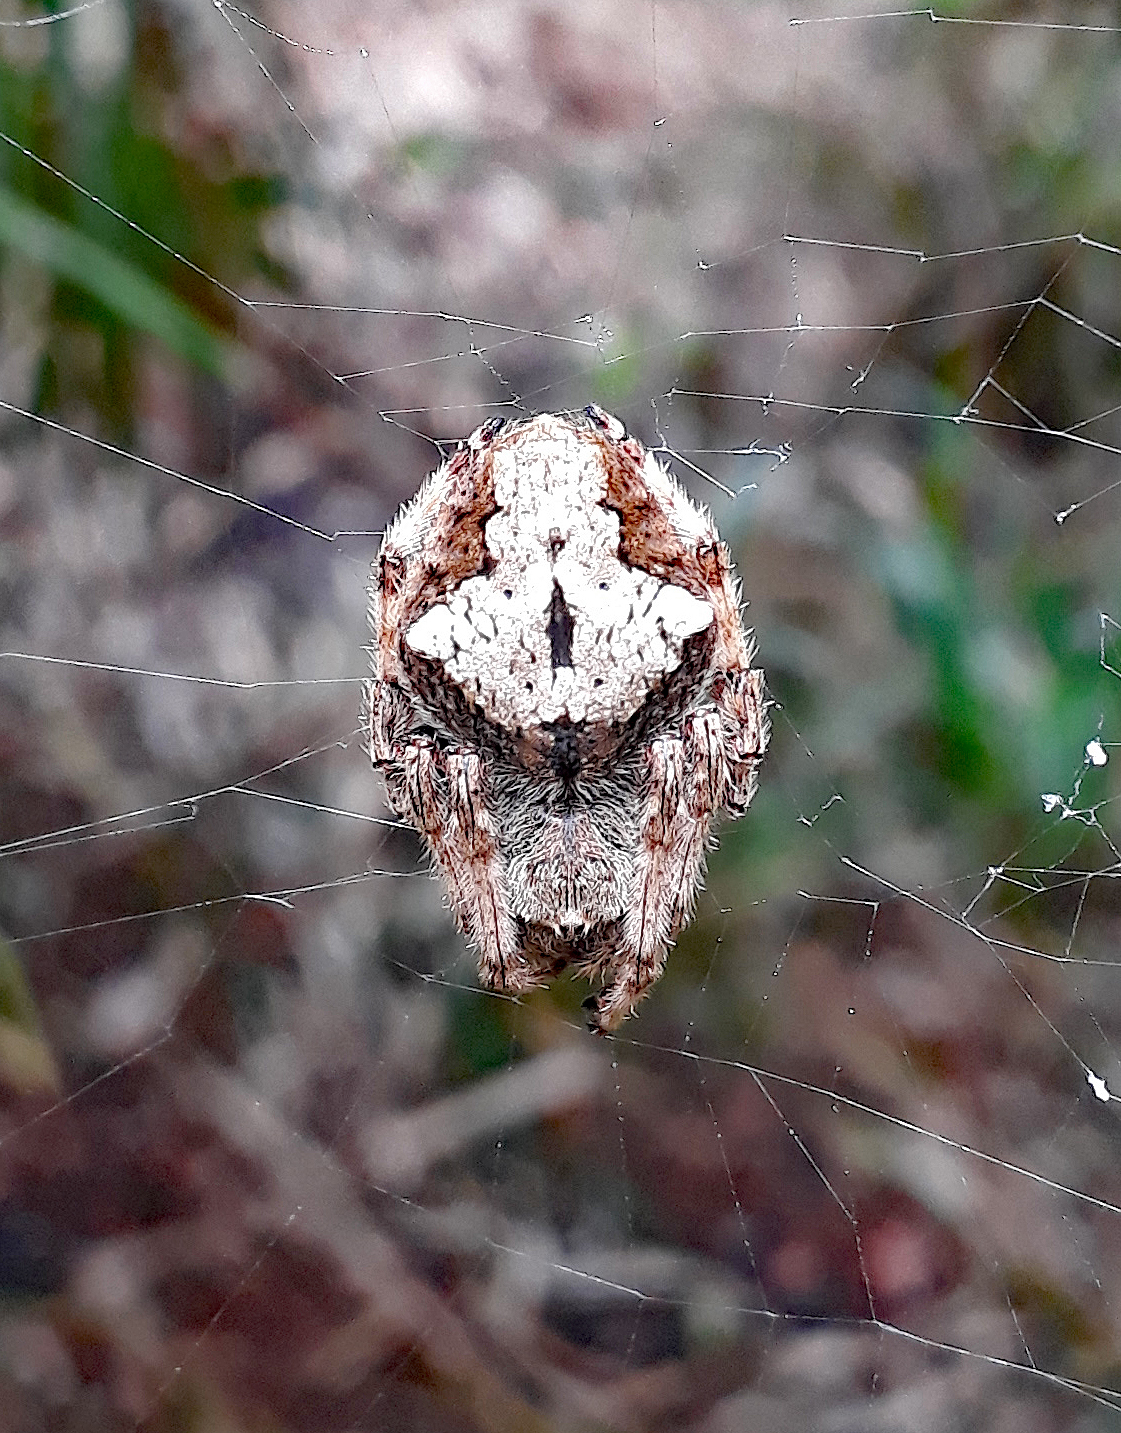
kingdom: Animalia
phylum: Arthropoda
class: Arachnida
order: Araneae
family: Araneidae
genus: Eriophora
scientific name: Eriophora pustulosa
